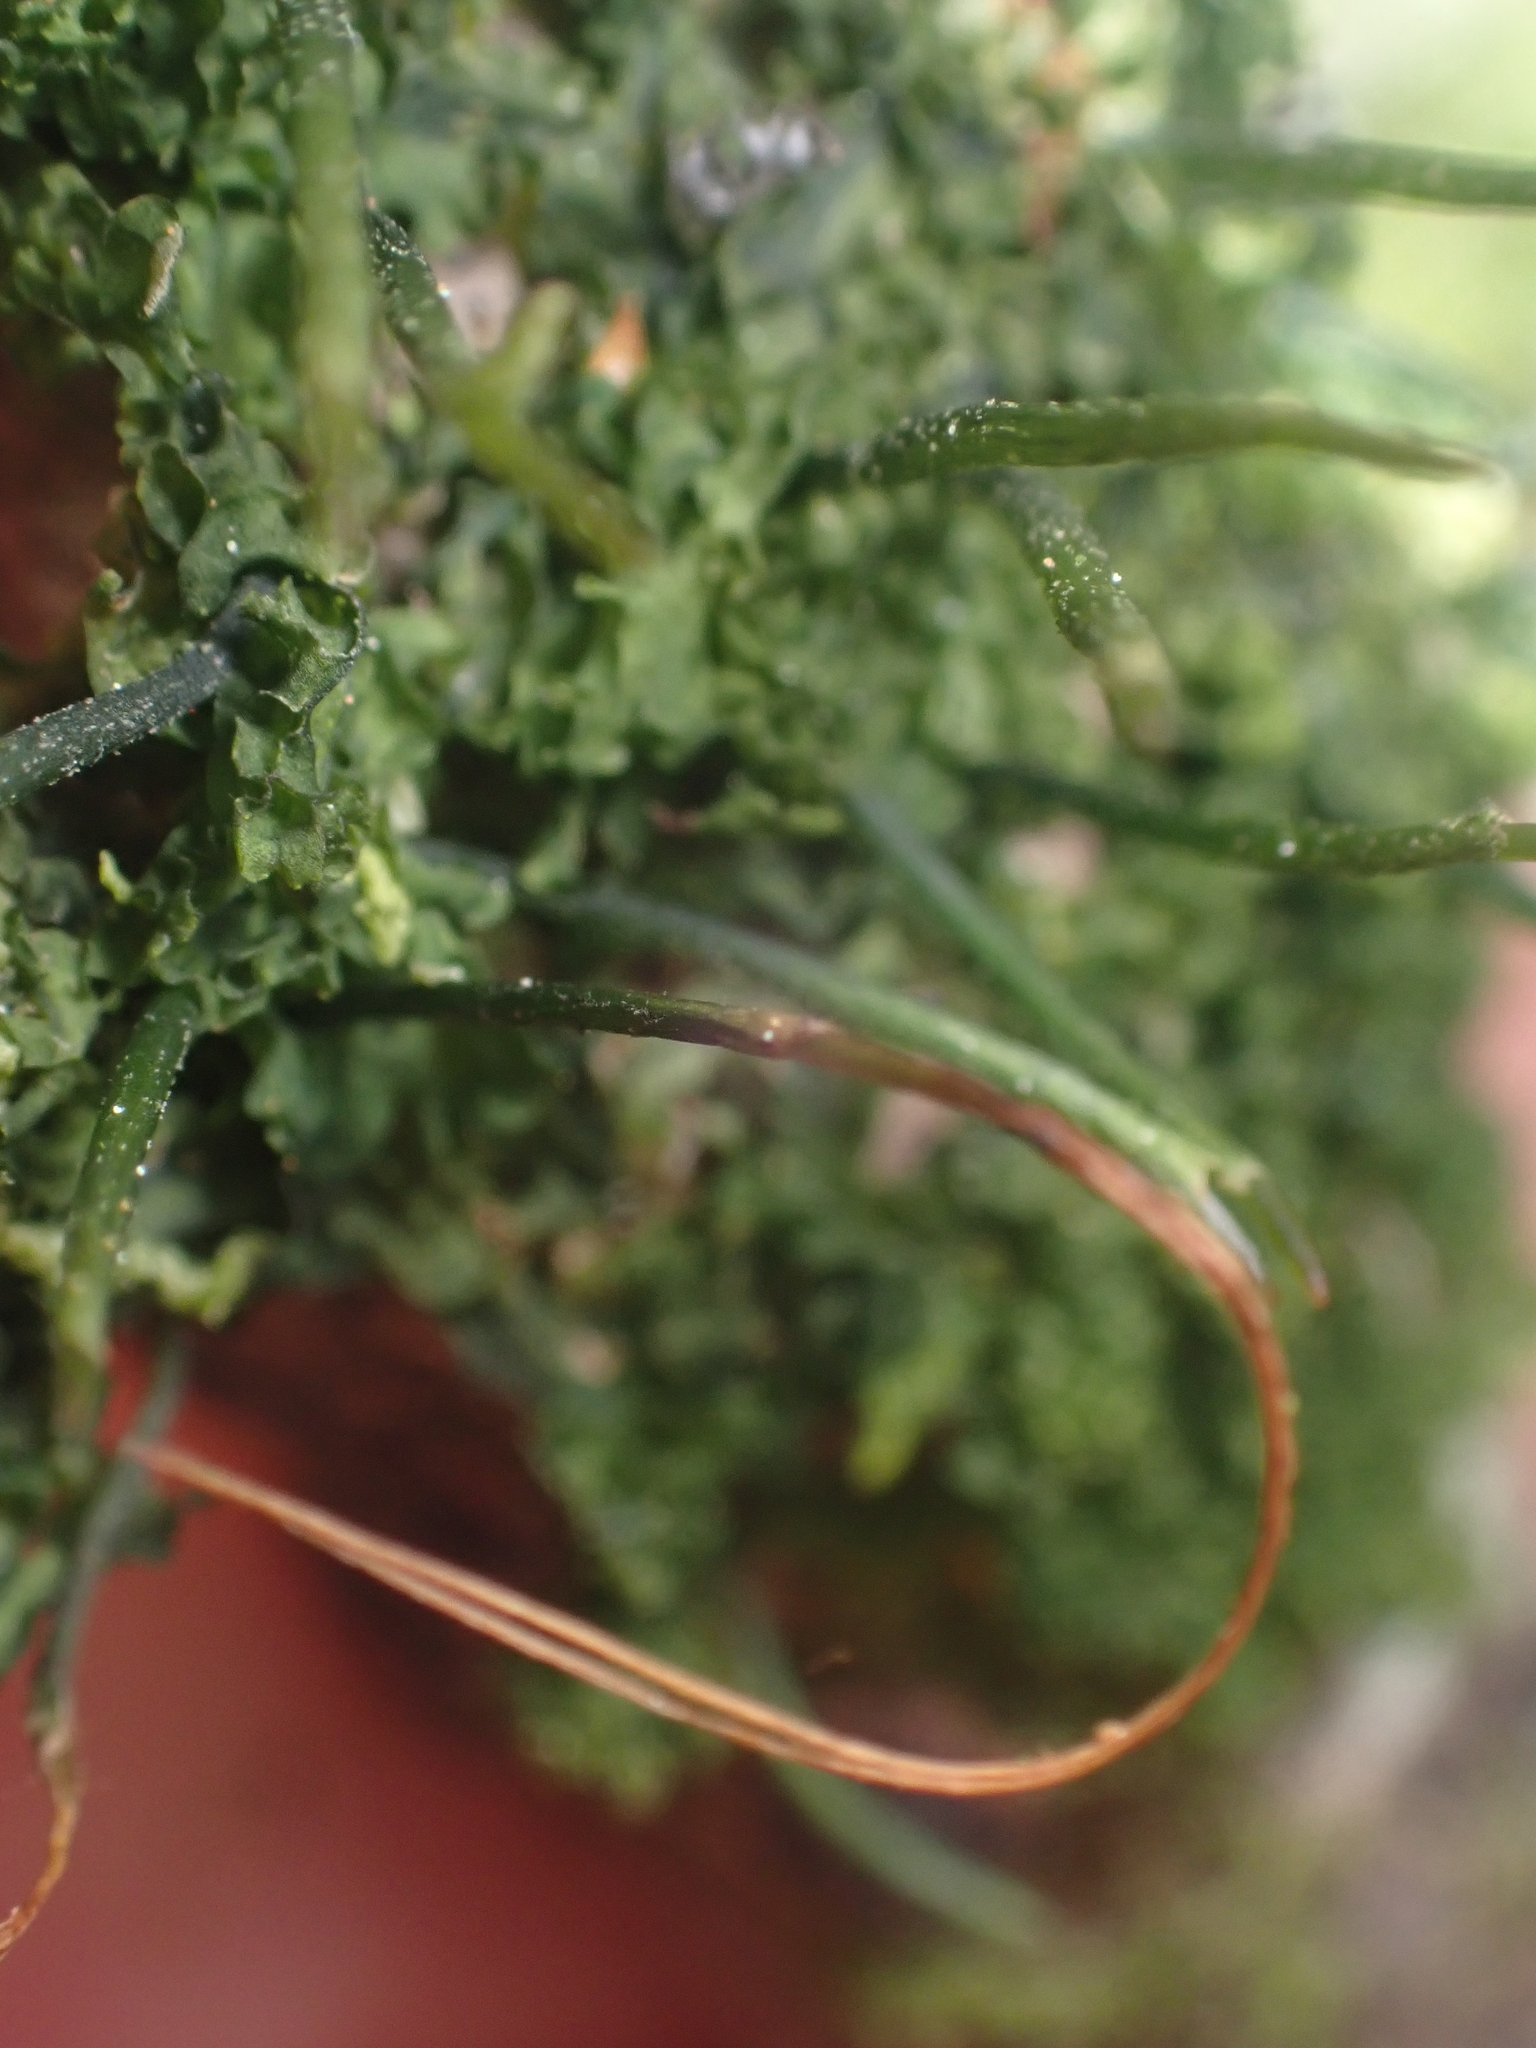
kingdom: Plantae
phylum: Anthocerotophyta
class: Anthocerotopsida
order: Dendrocerotales
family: Dendrocerotaceae
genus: Dendroceros
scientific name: Dendroceros validus
